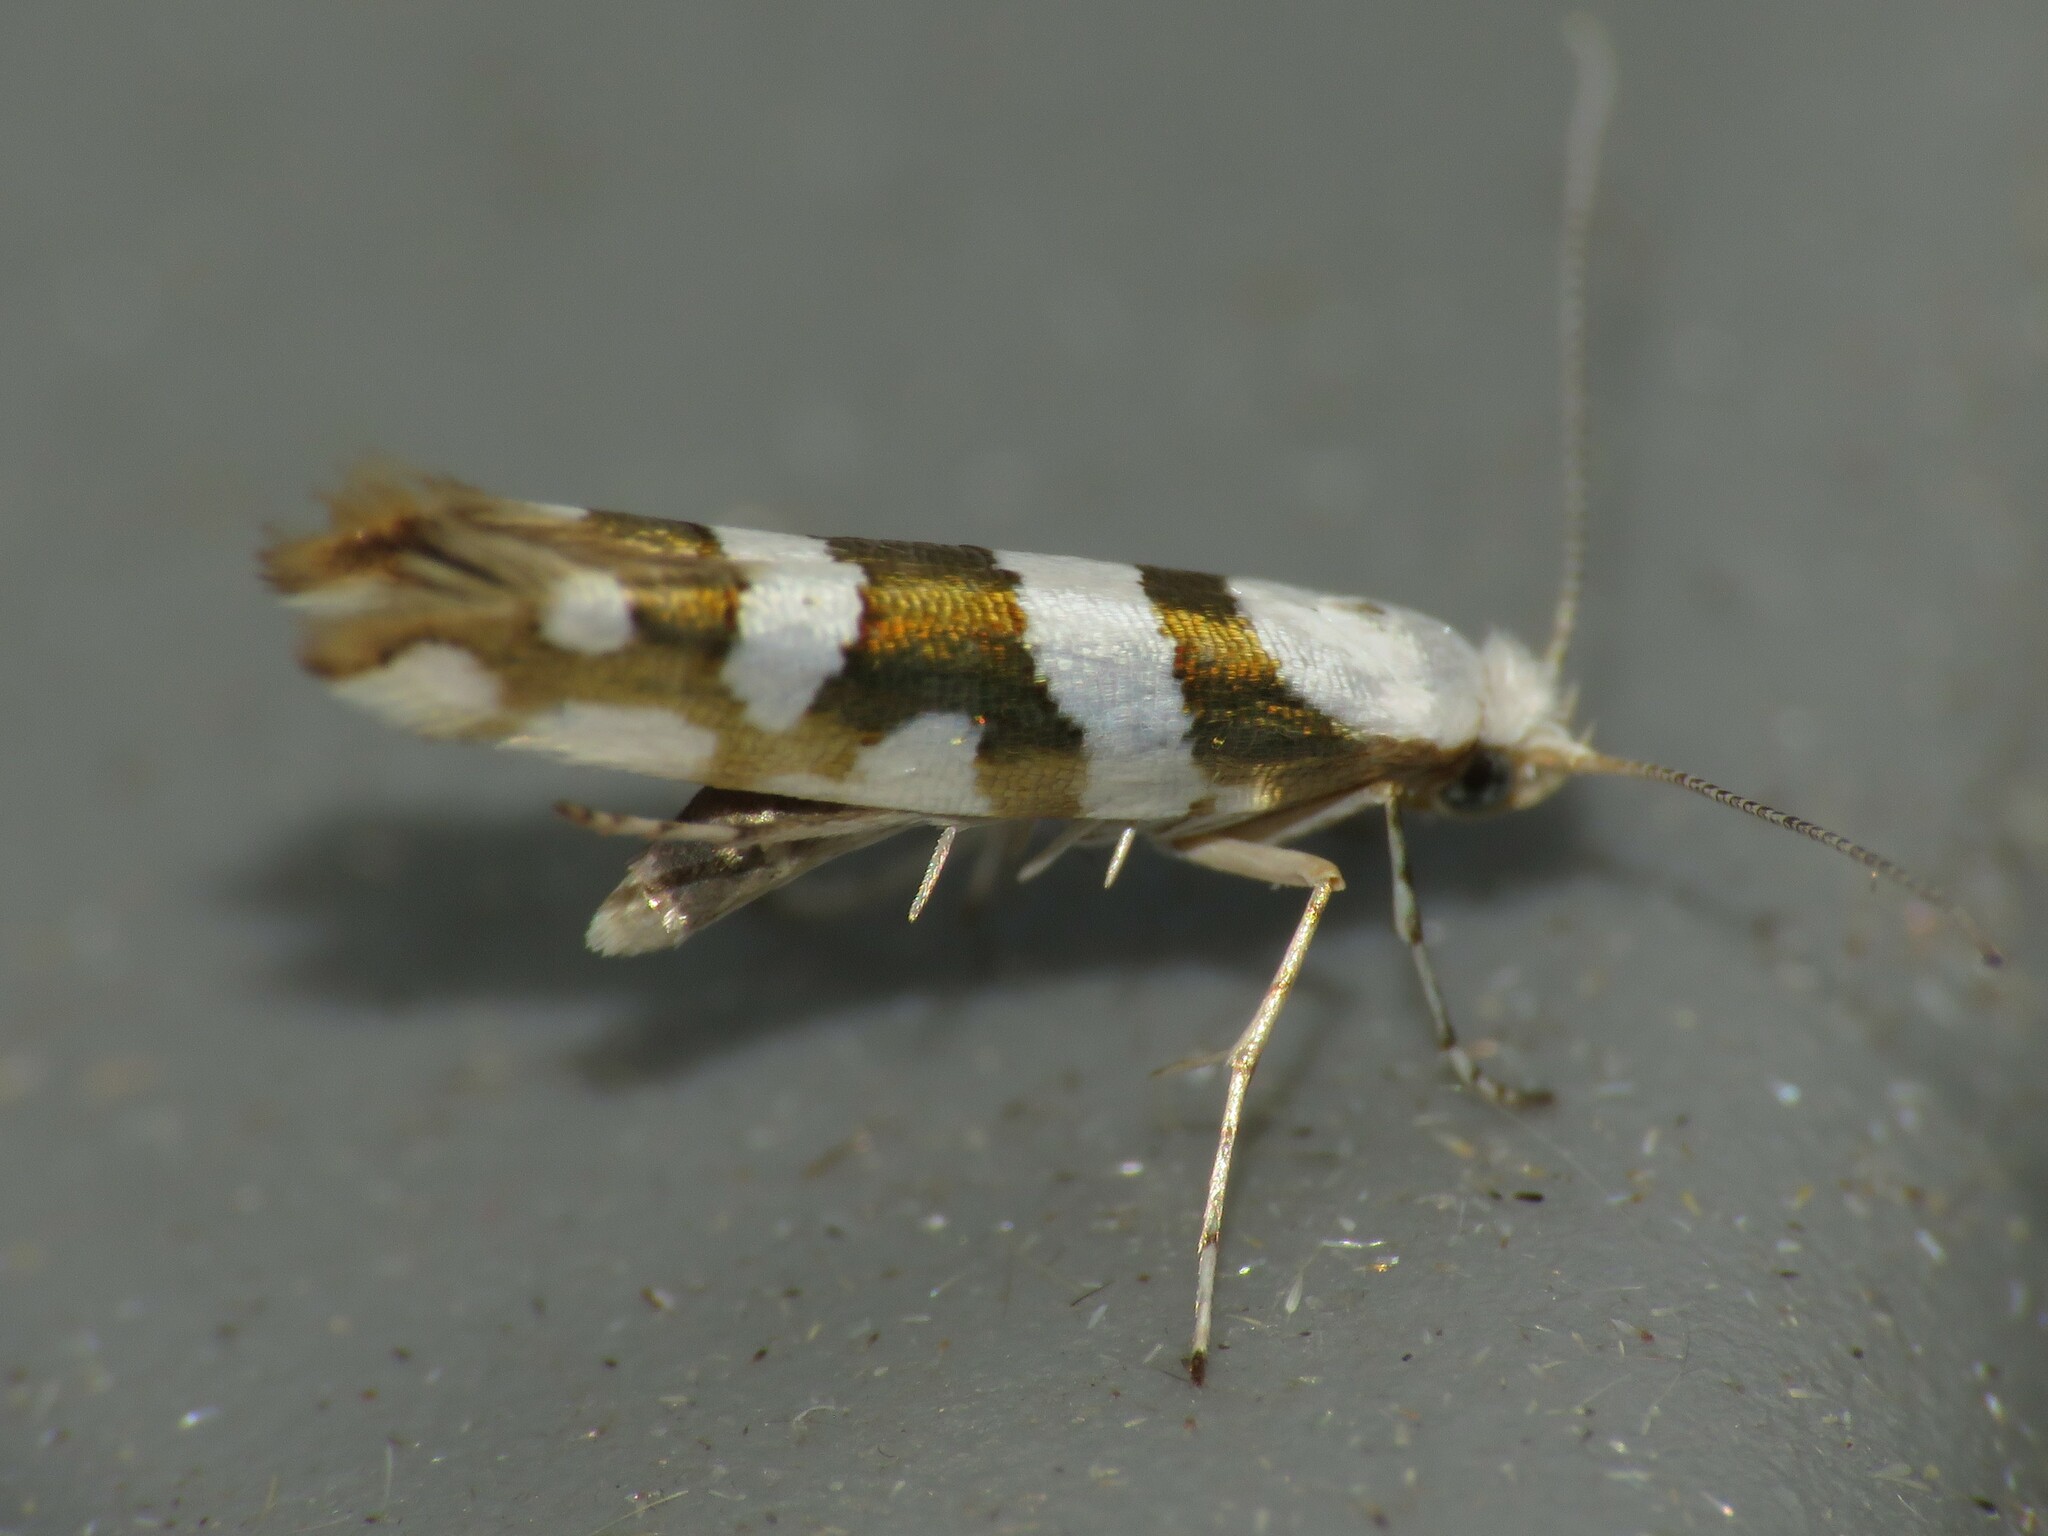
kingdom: Animalia
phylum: Arthropoda
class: Insecta
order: Lepidoptera
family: Argyresthiidae
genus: Argyresthia
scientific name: Argyresthia calliphanes
